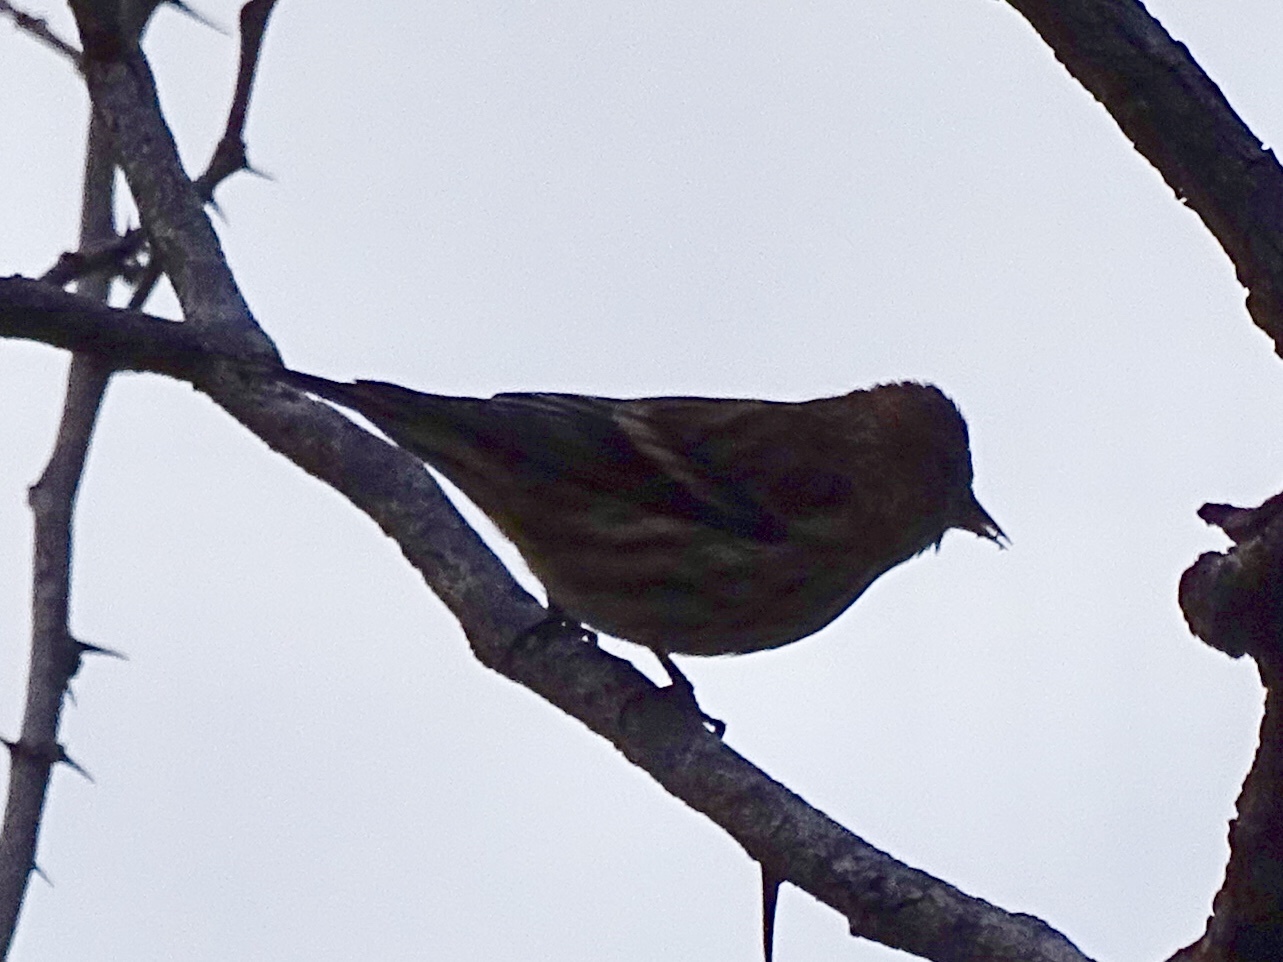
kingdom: Animalia
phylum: Chordata
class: Aves
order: Passeriformes
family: Fringillidae
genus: Spinus
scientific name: Spinus pinus
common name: Pine siskin
